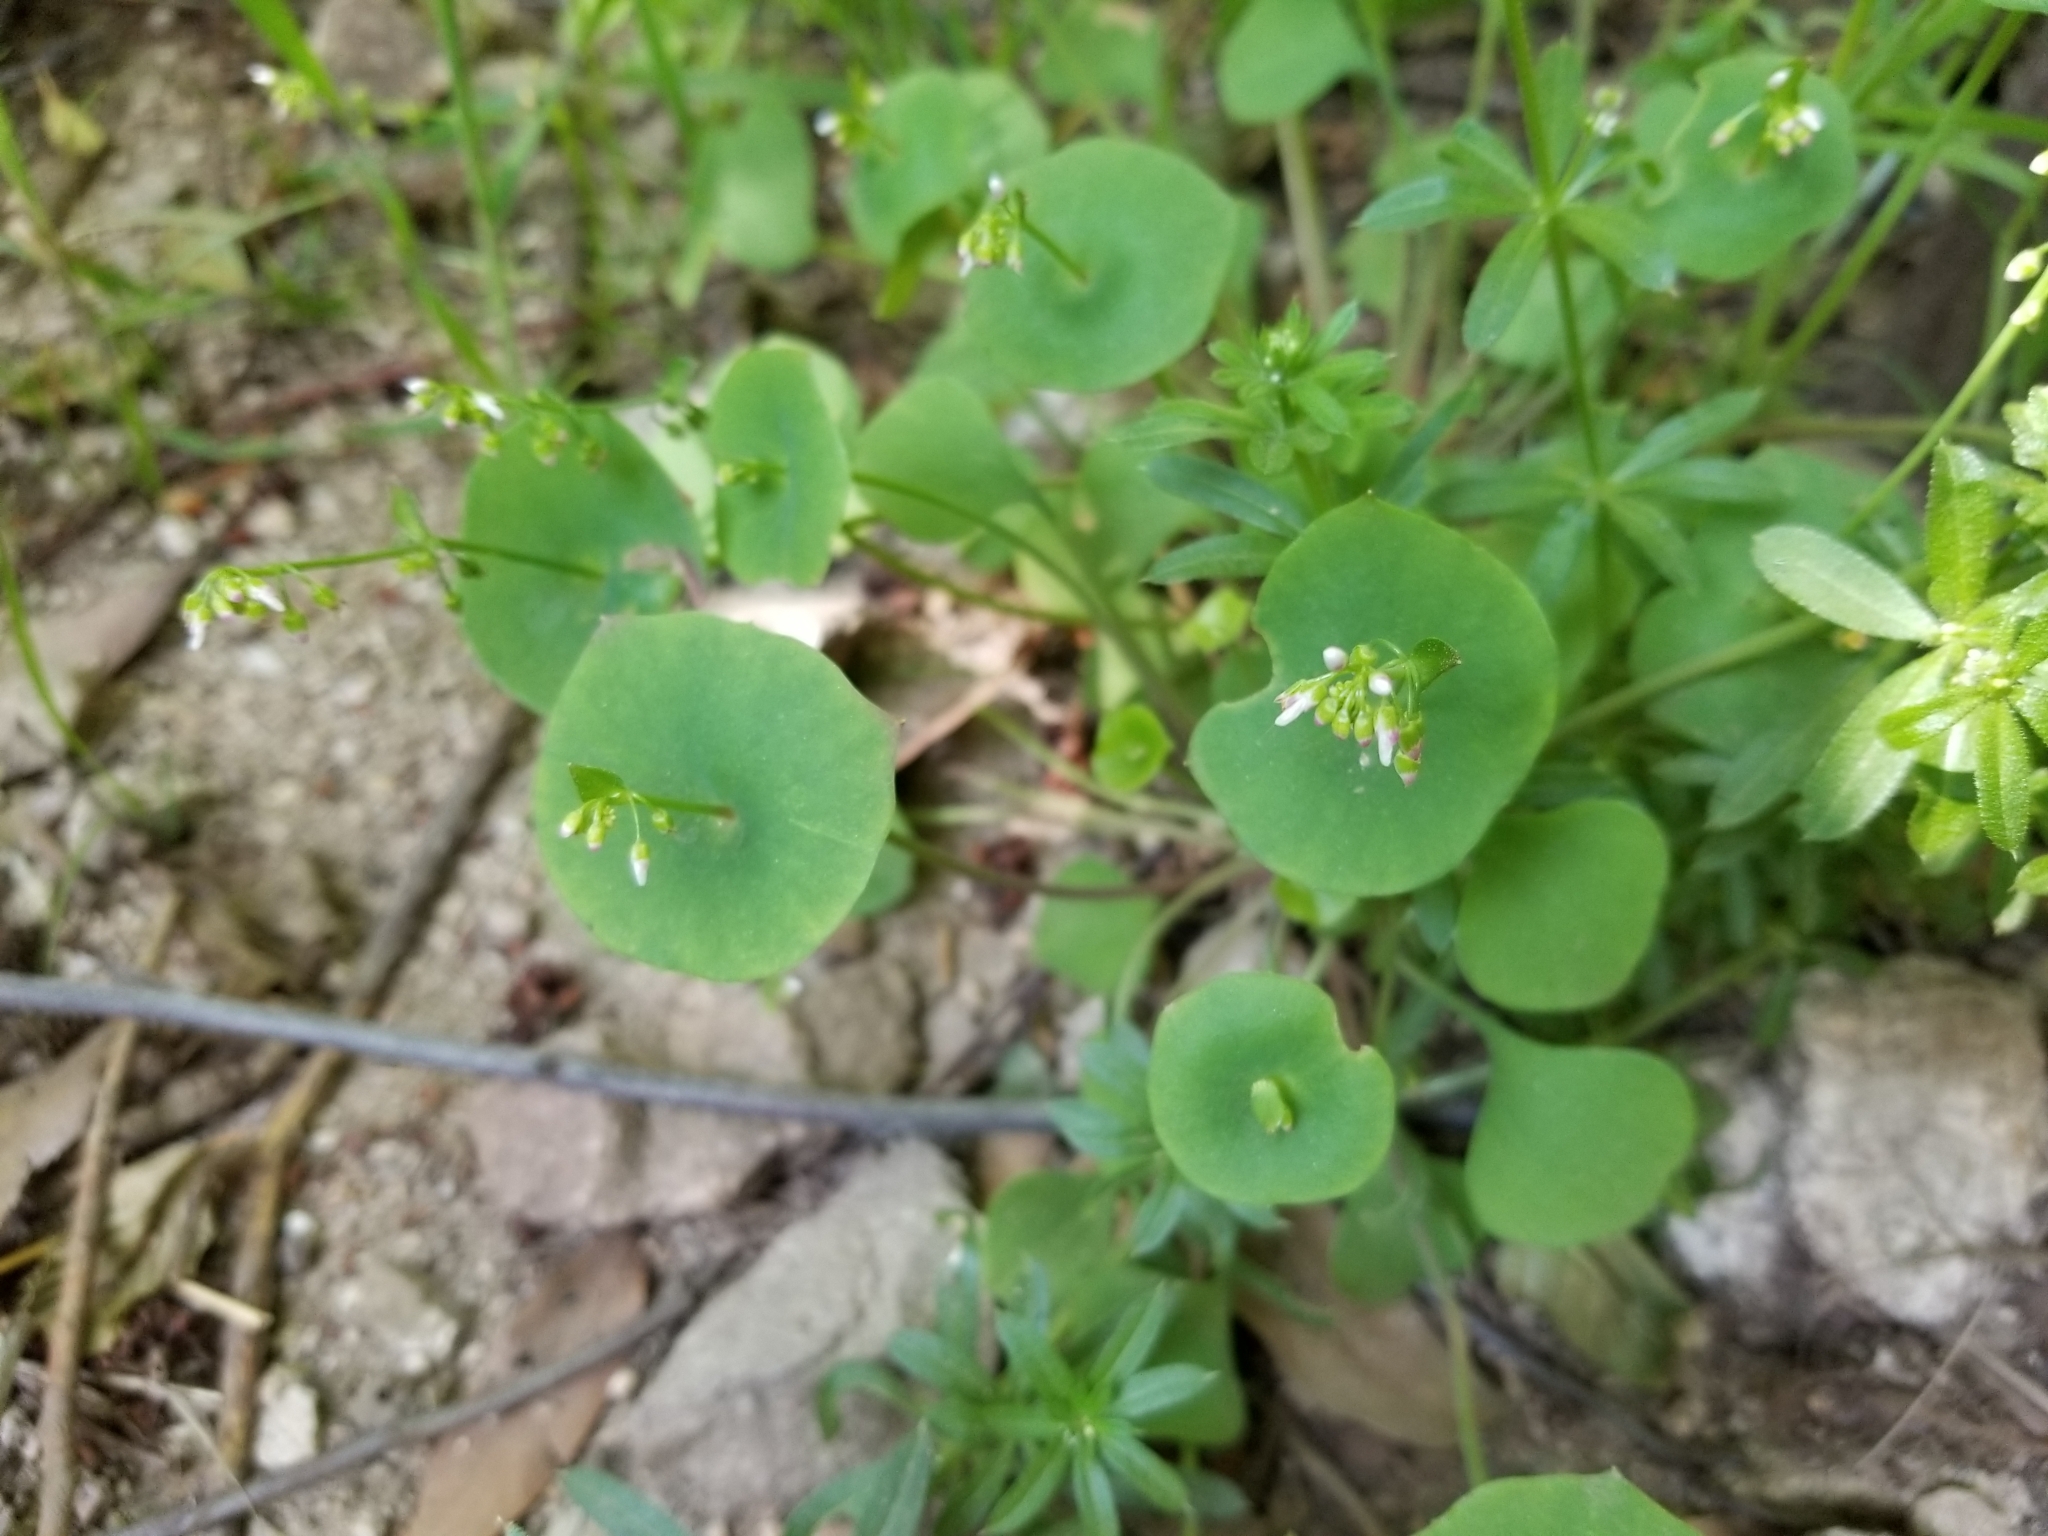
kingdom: Plantae
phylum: Tracheophyta
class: Magnoliopsida
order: Caryophyllales
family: Montiaceae
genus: Claytonia
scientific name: Claytonia perfoliata
